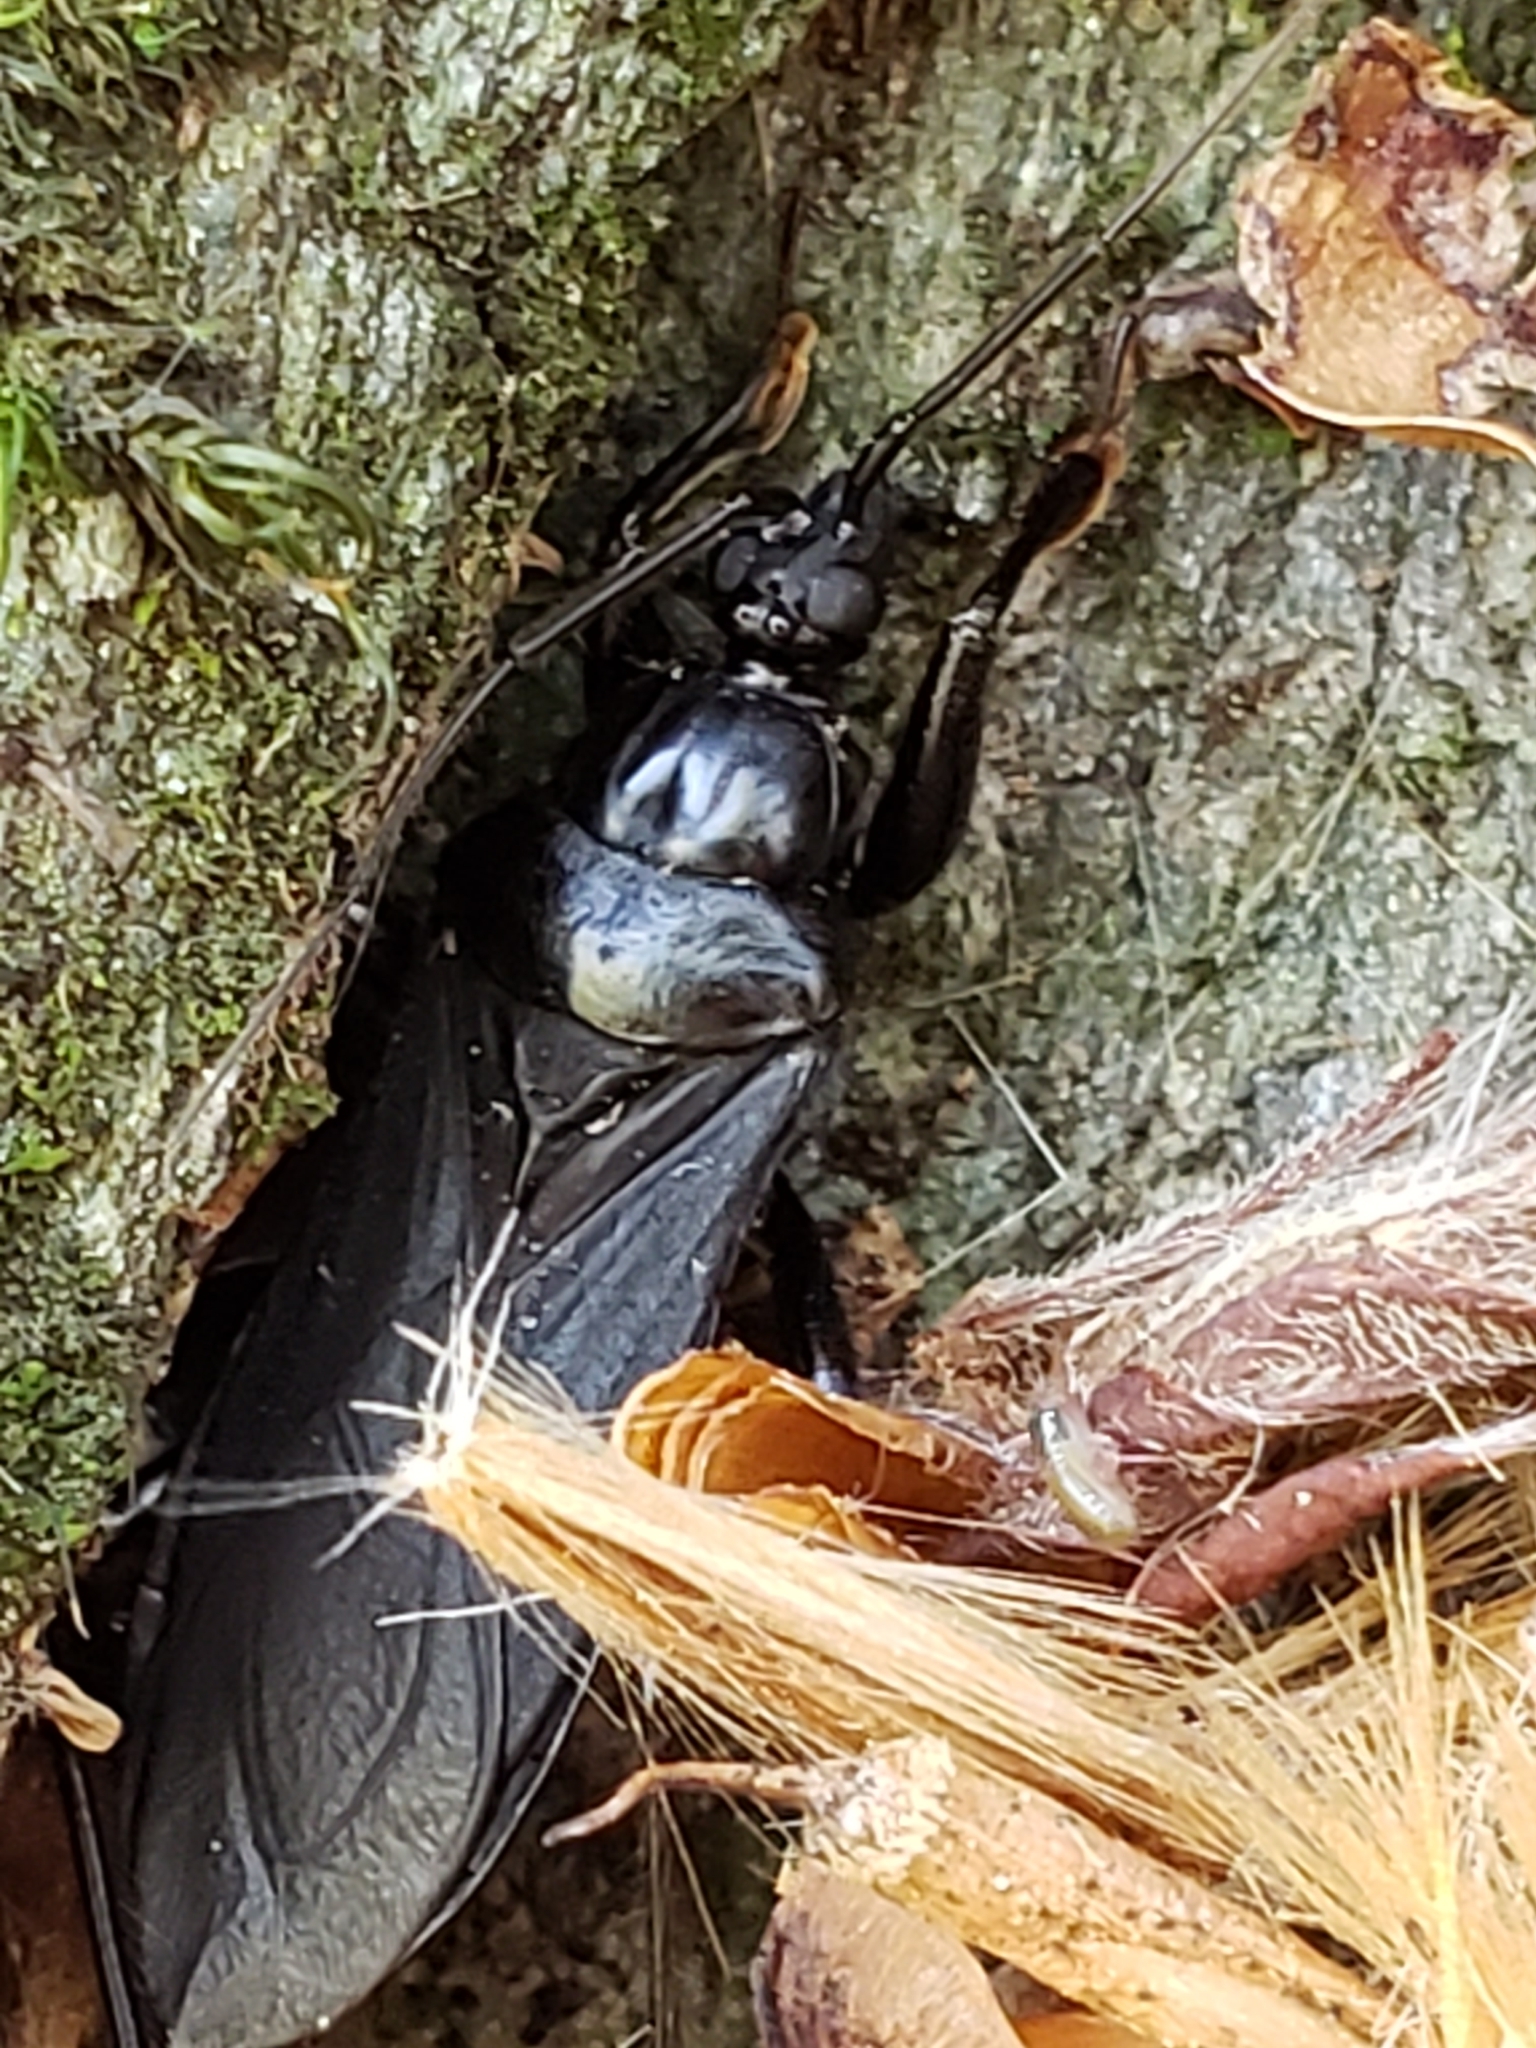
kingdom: Animalia
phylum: Arthropoda
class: Insecta
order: Hemiptera
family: Reduviidae
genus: Melanolestes
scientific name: Melanolestes picipes
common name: Assassin bug
